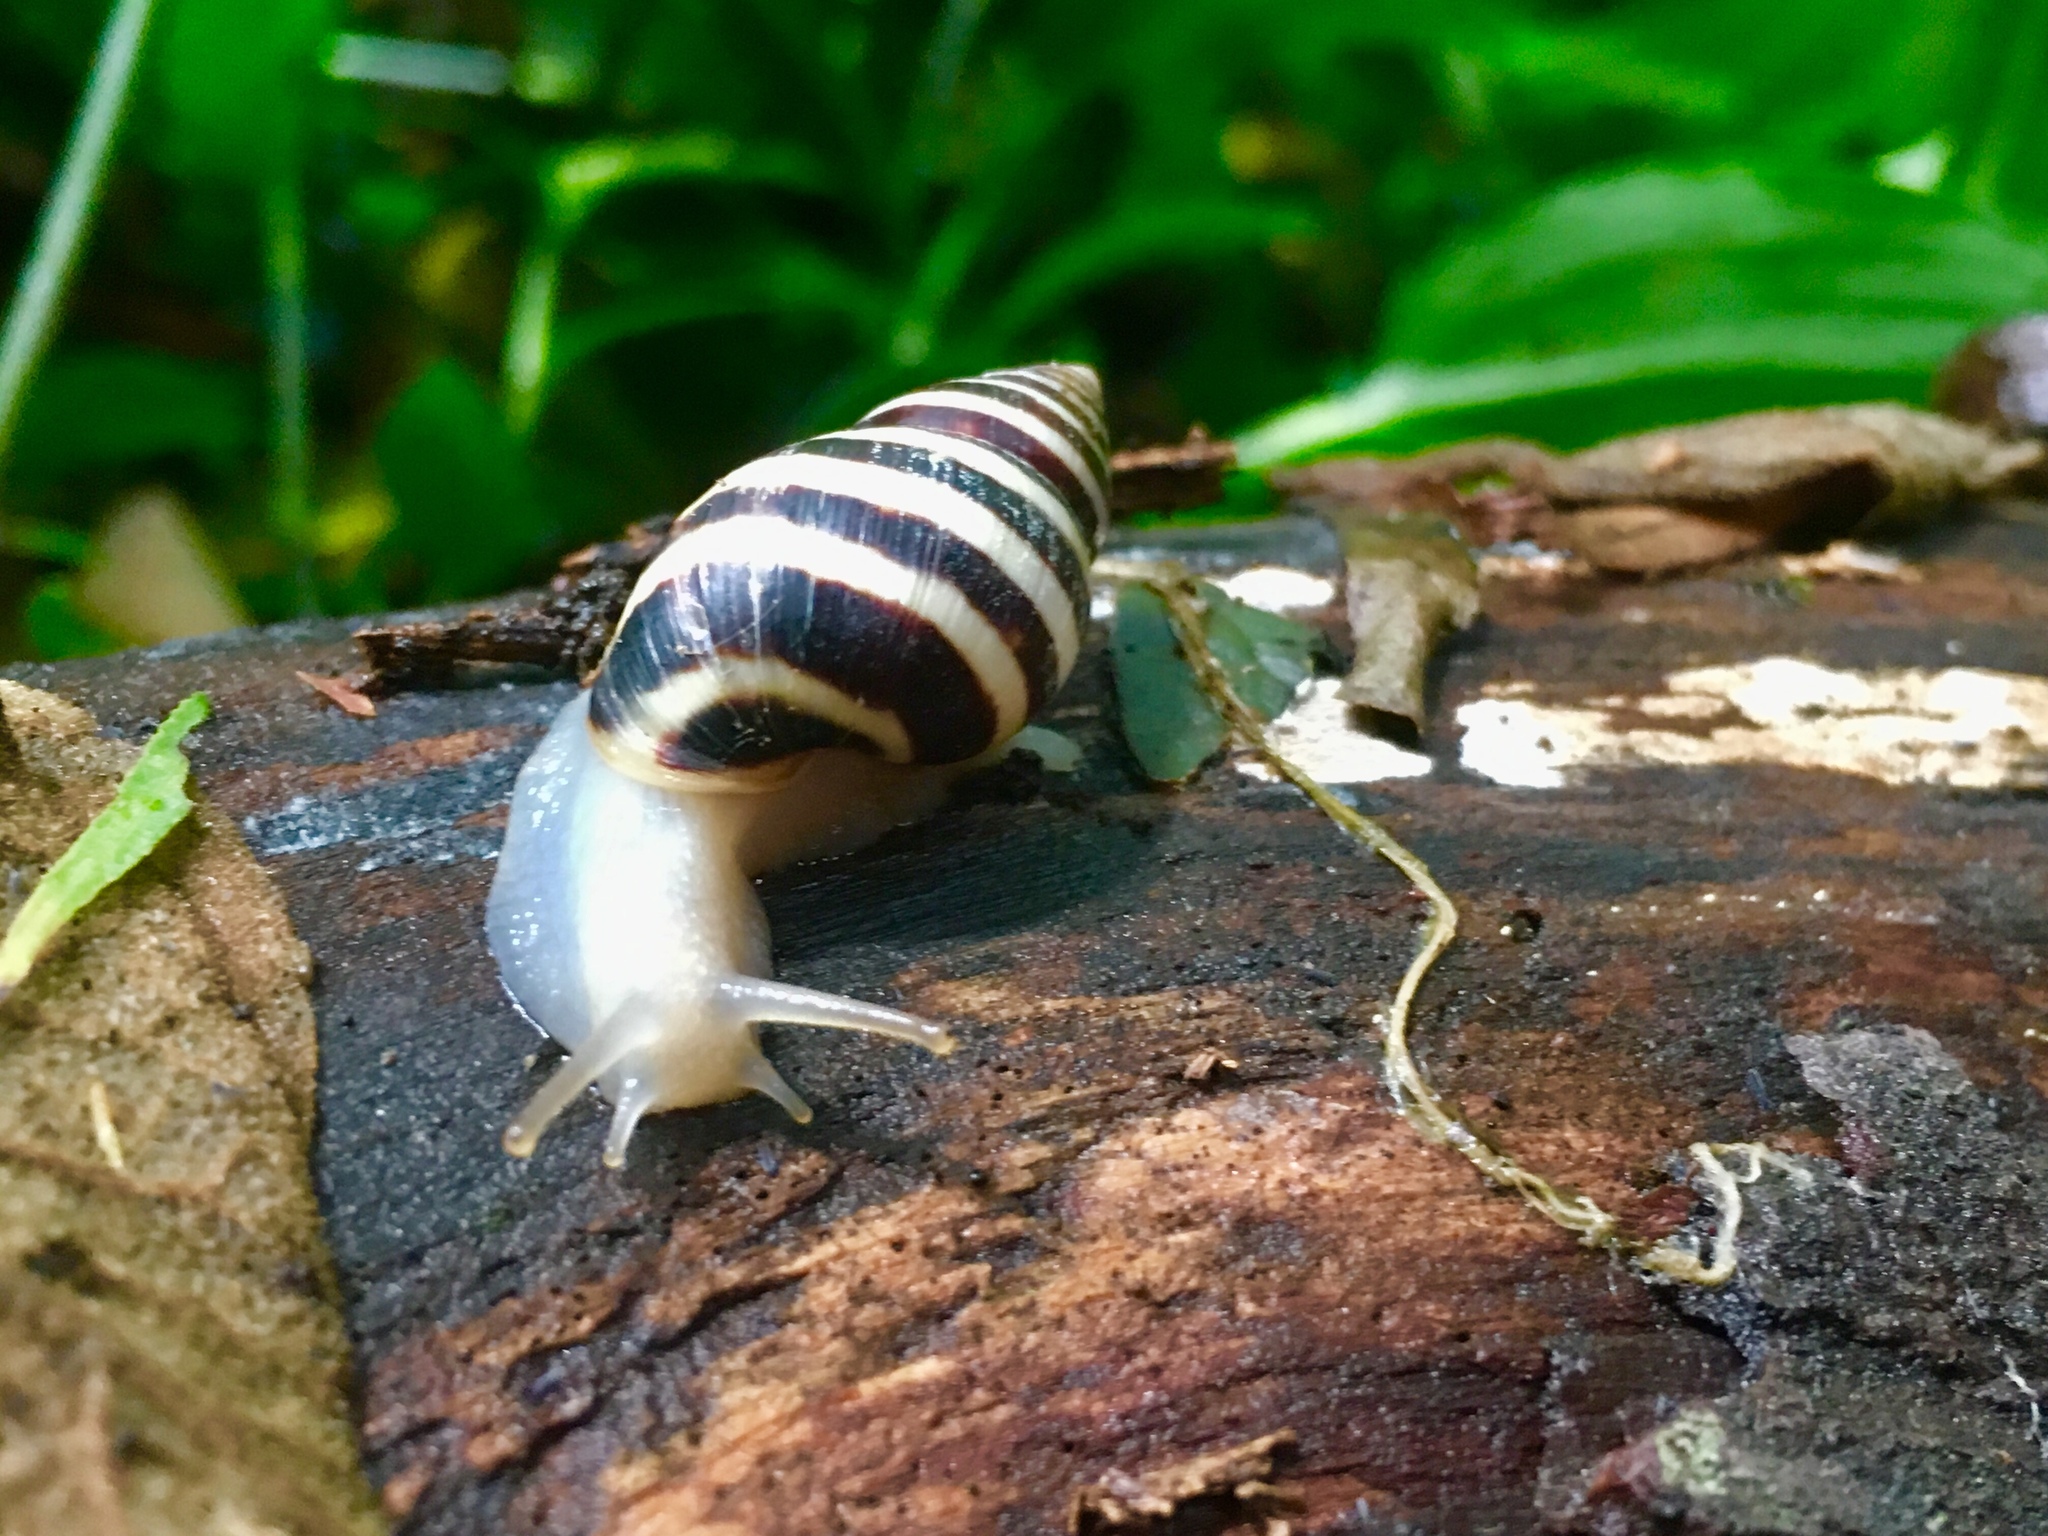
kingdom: Animalia
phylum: Mollusca
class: Gastropoda
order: Stylommatophora
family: Bulimulidae
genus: Drymaeus
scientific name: Drymaeus
